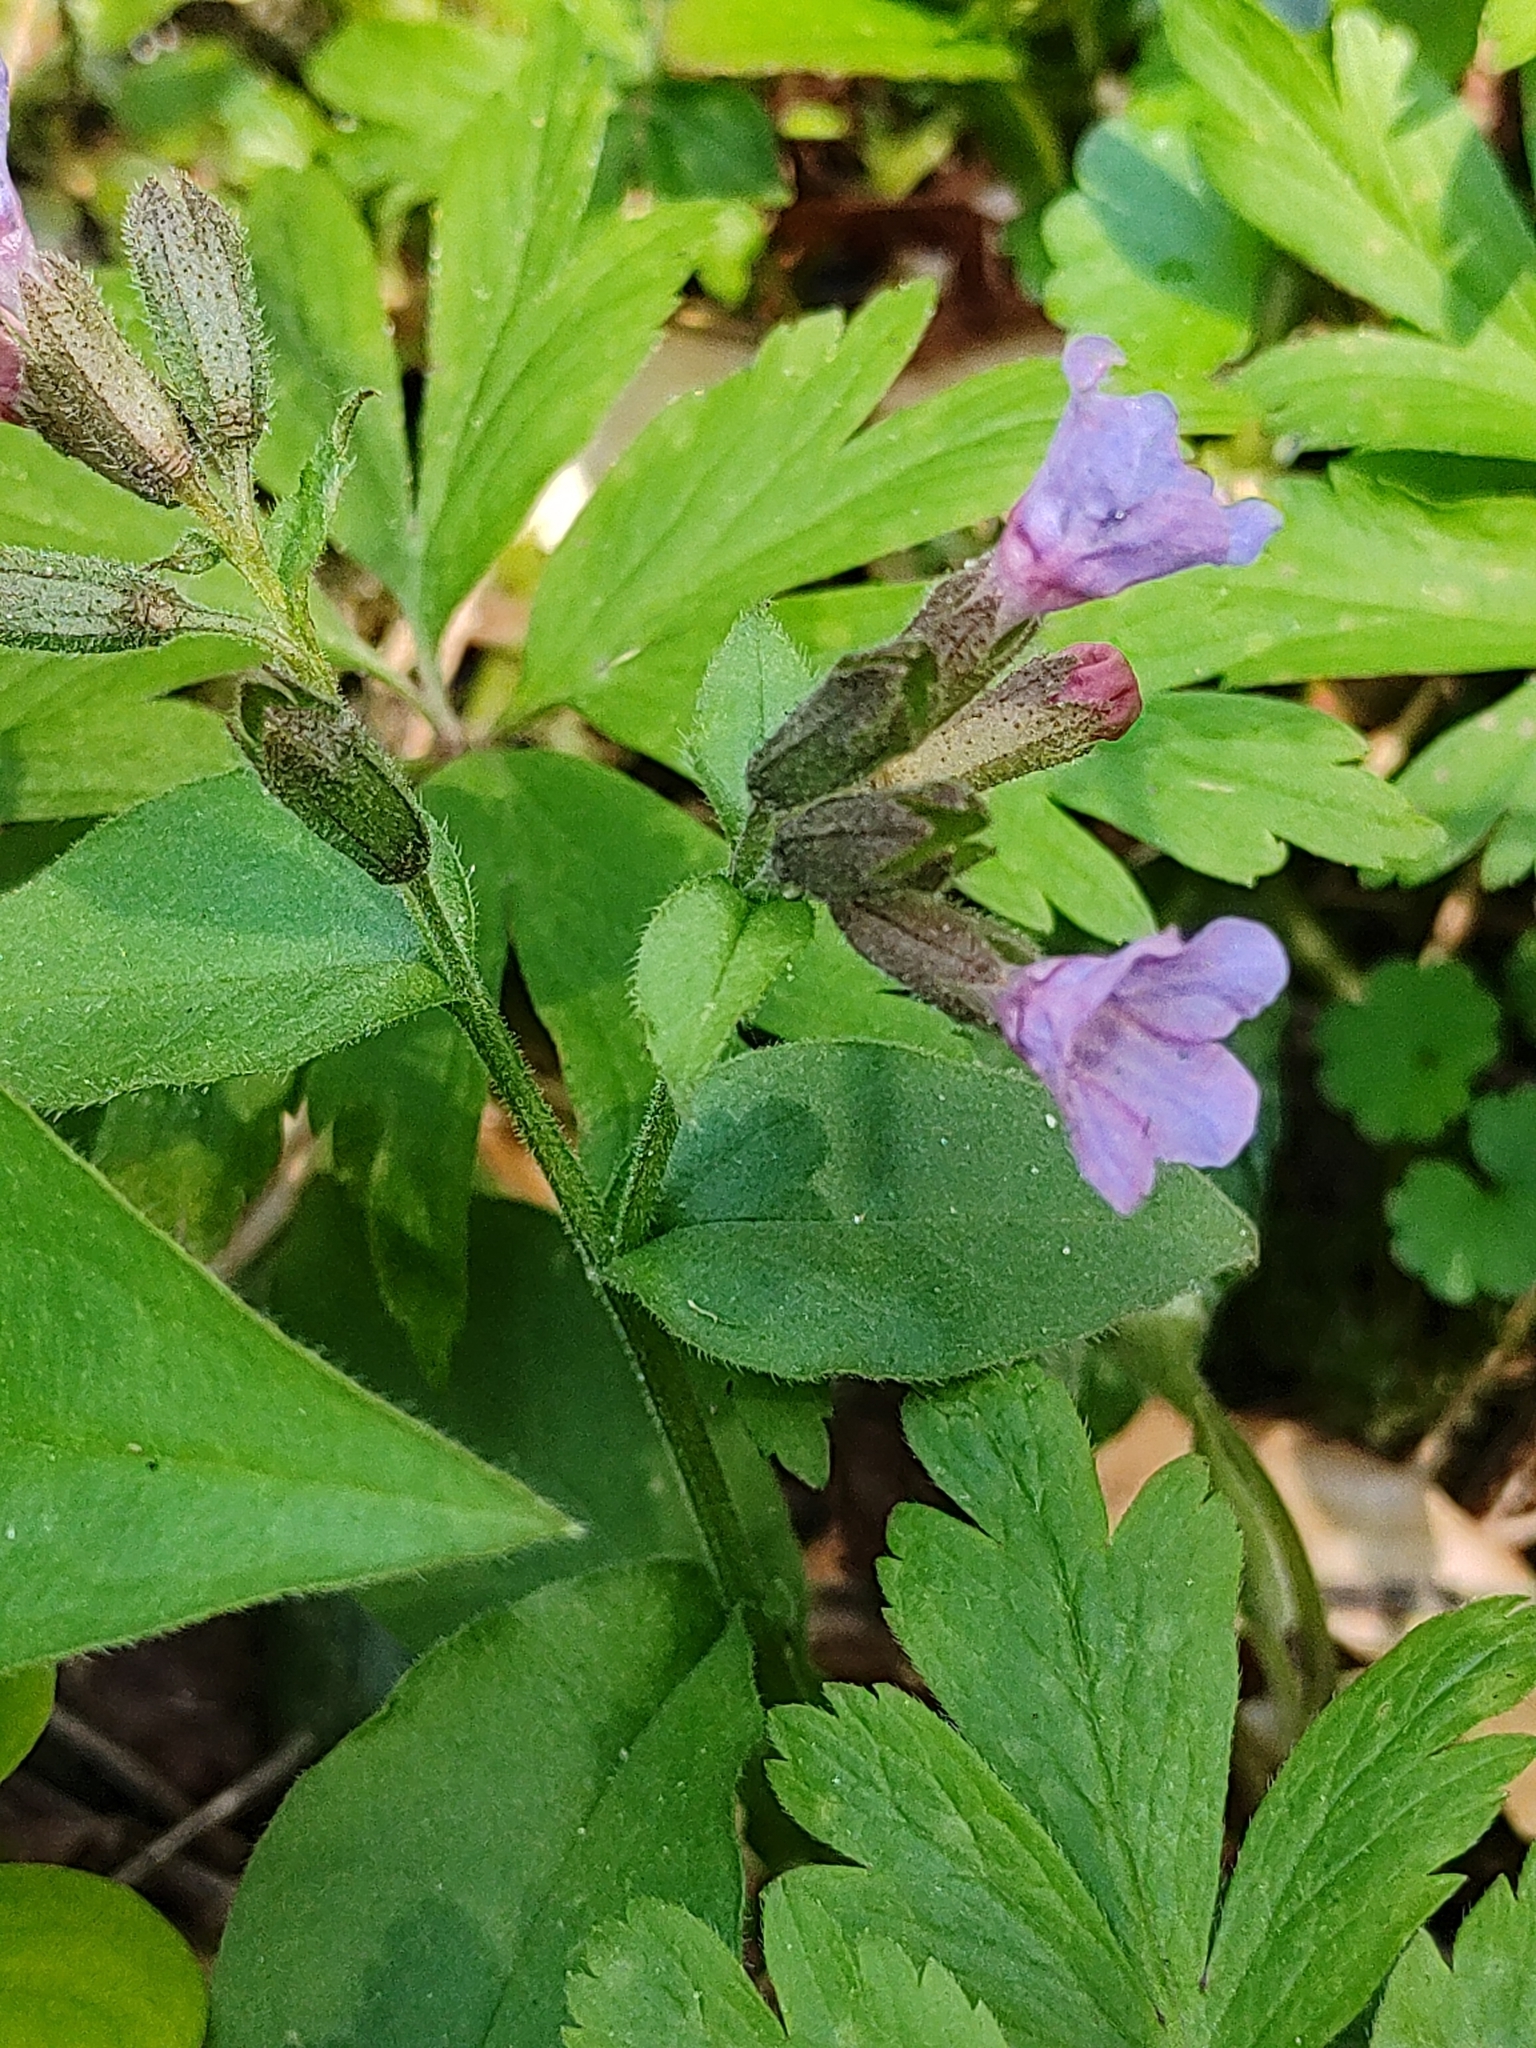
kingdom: Plantae
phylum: Tracheophyta
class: Magnoliopsida
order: Boraginales
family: Boraginaceae
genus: Pulmonaria
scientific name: Pulmonaria obscura
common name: Suffolk lungwort
